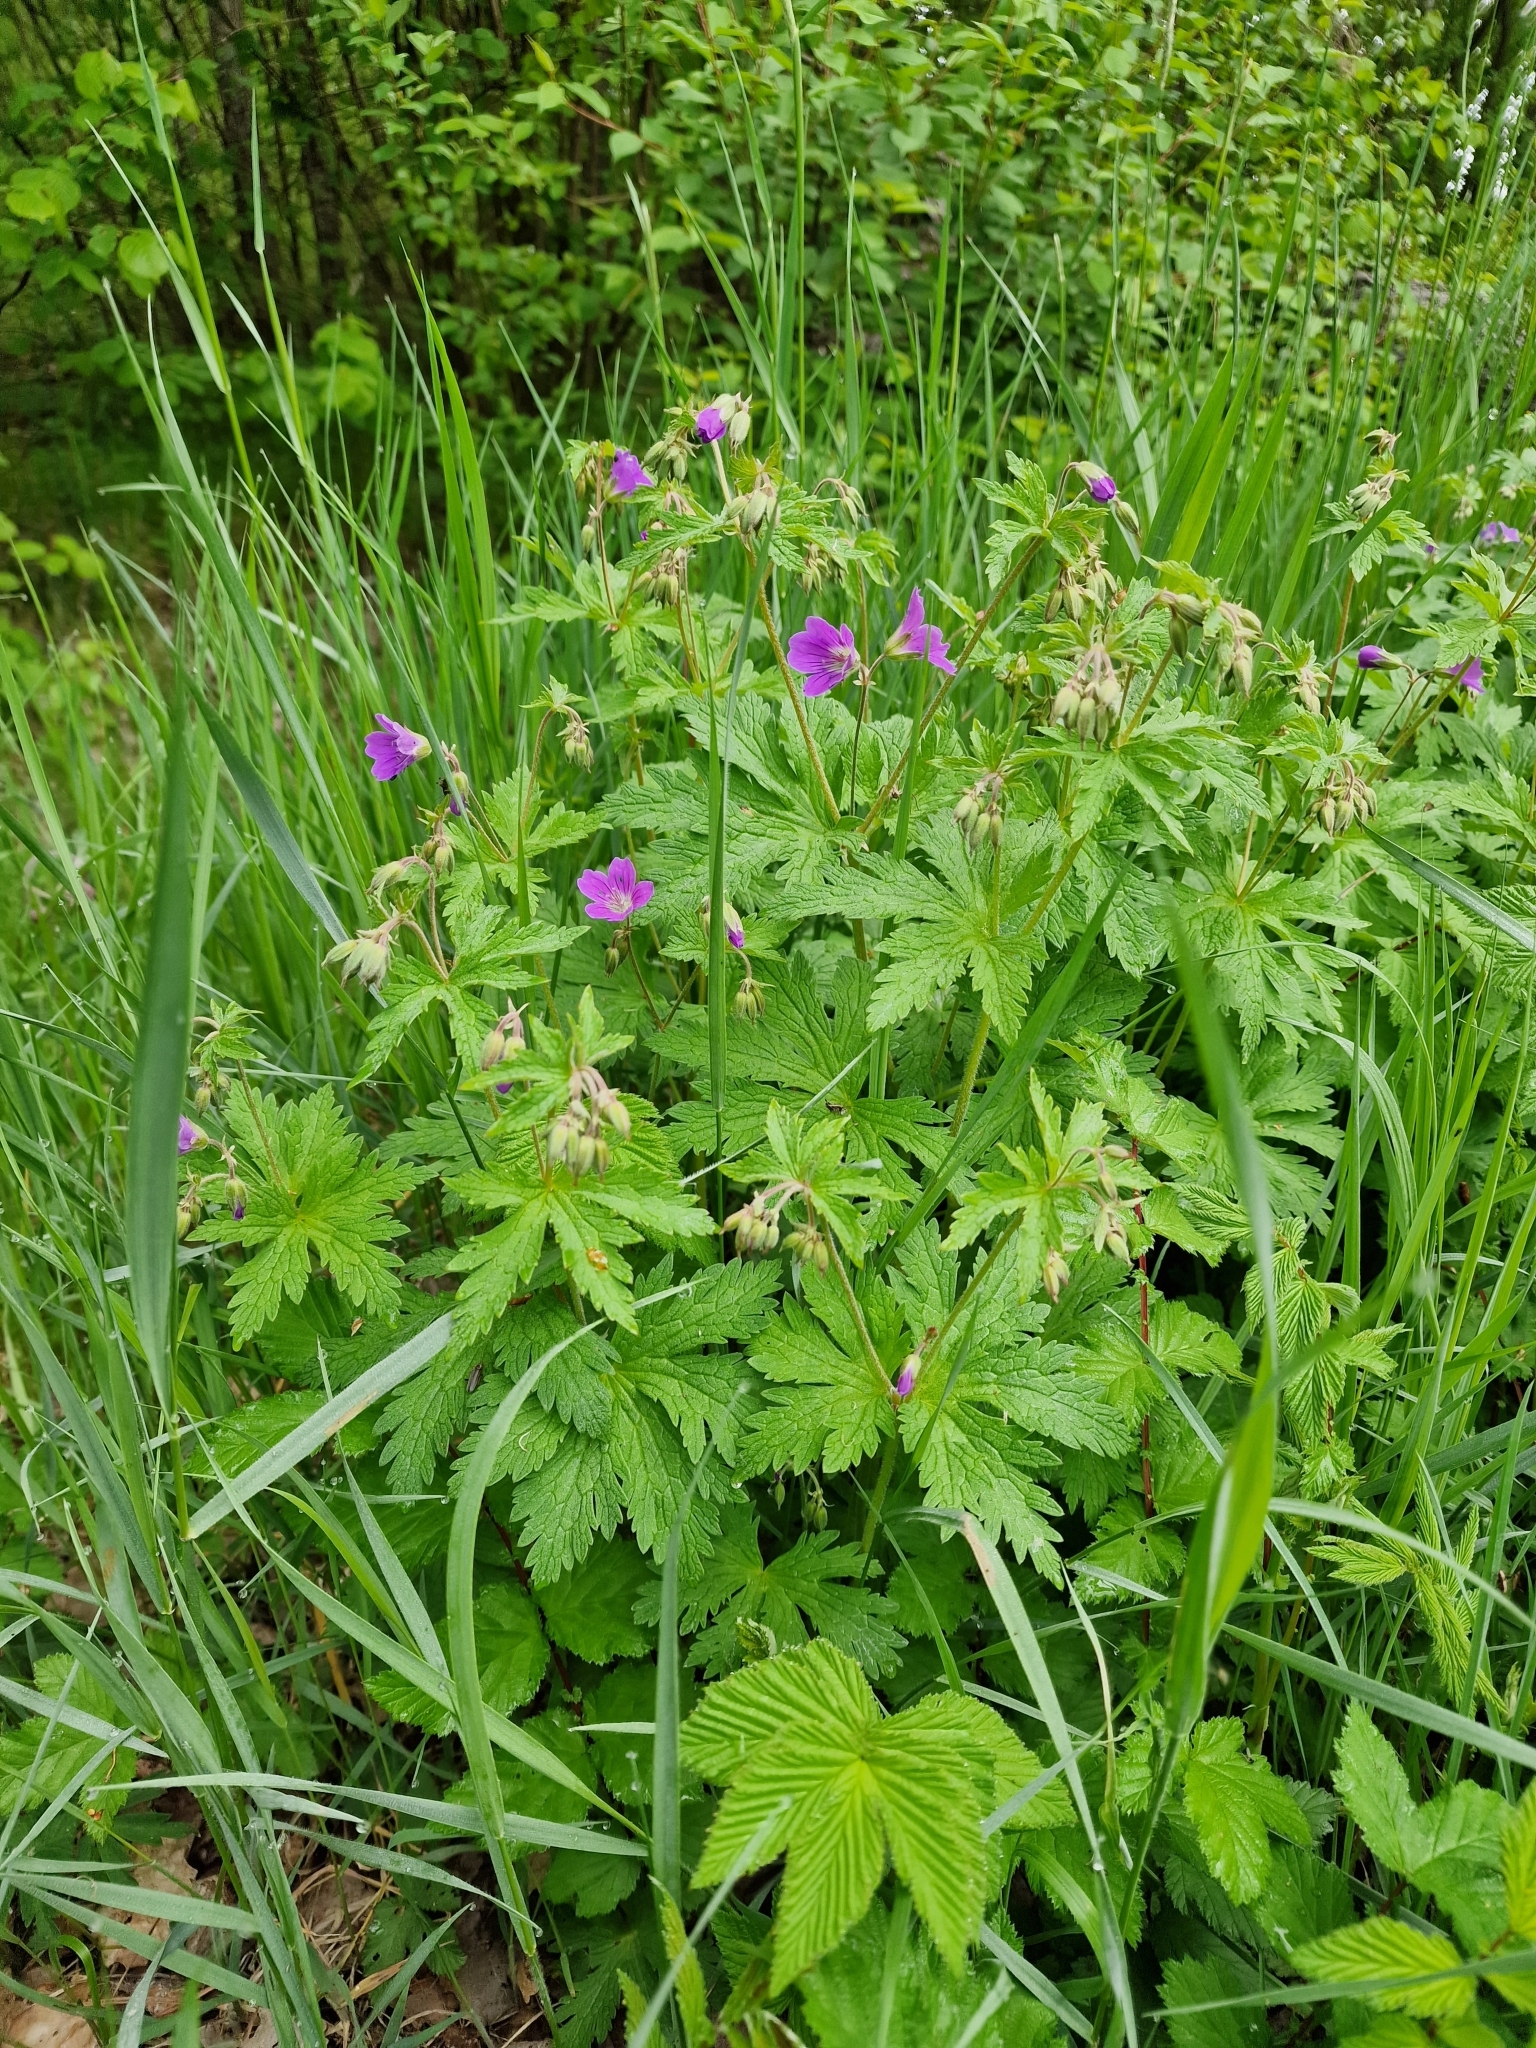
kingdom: Plantae
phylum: Tracheophyta
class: Magnoliopsida
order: Geraniales
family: Geraniaceae
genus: Geranium
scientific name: Geranium sylvaticum
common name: Wood crane's-bill
